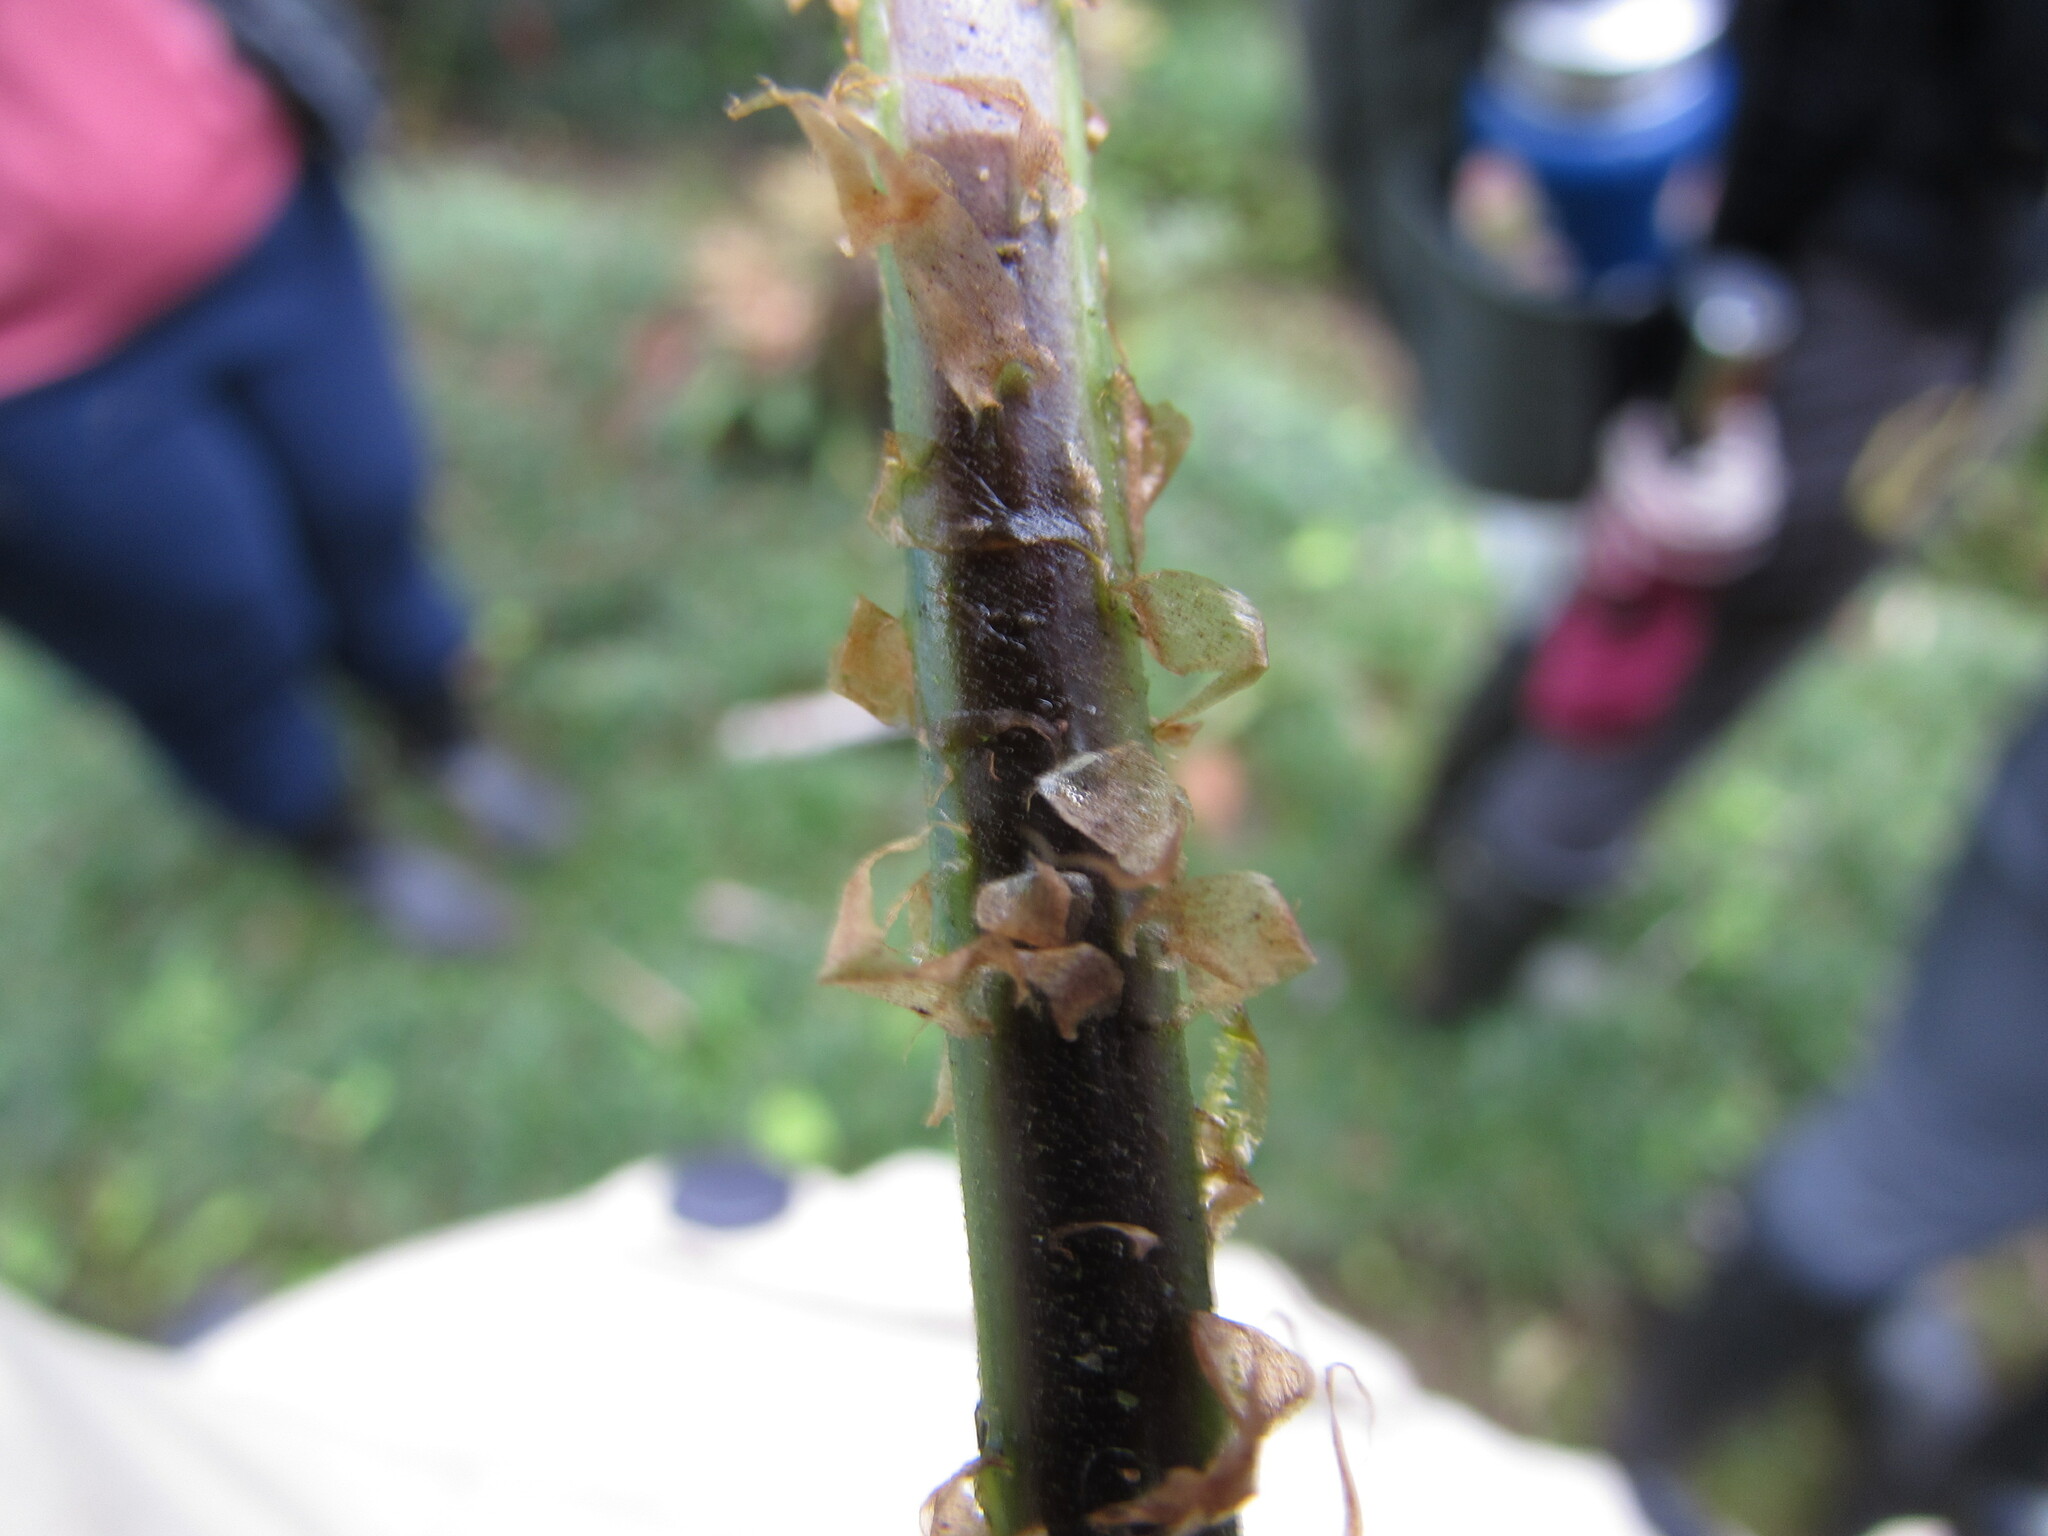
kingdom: Plantae
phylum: Tracheophyta
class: Polypodiopsida
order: Polypodiales
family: Dryopteridaceae
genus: Dryopteris
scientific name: Dryopteris patula
